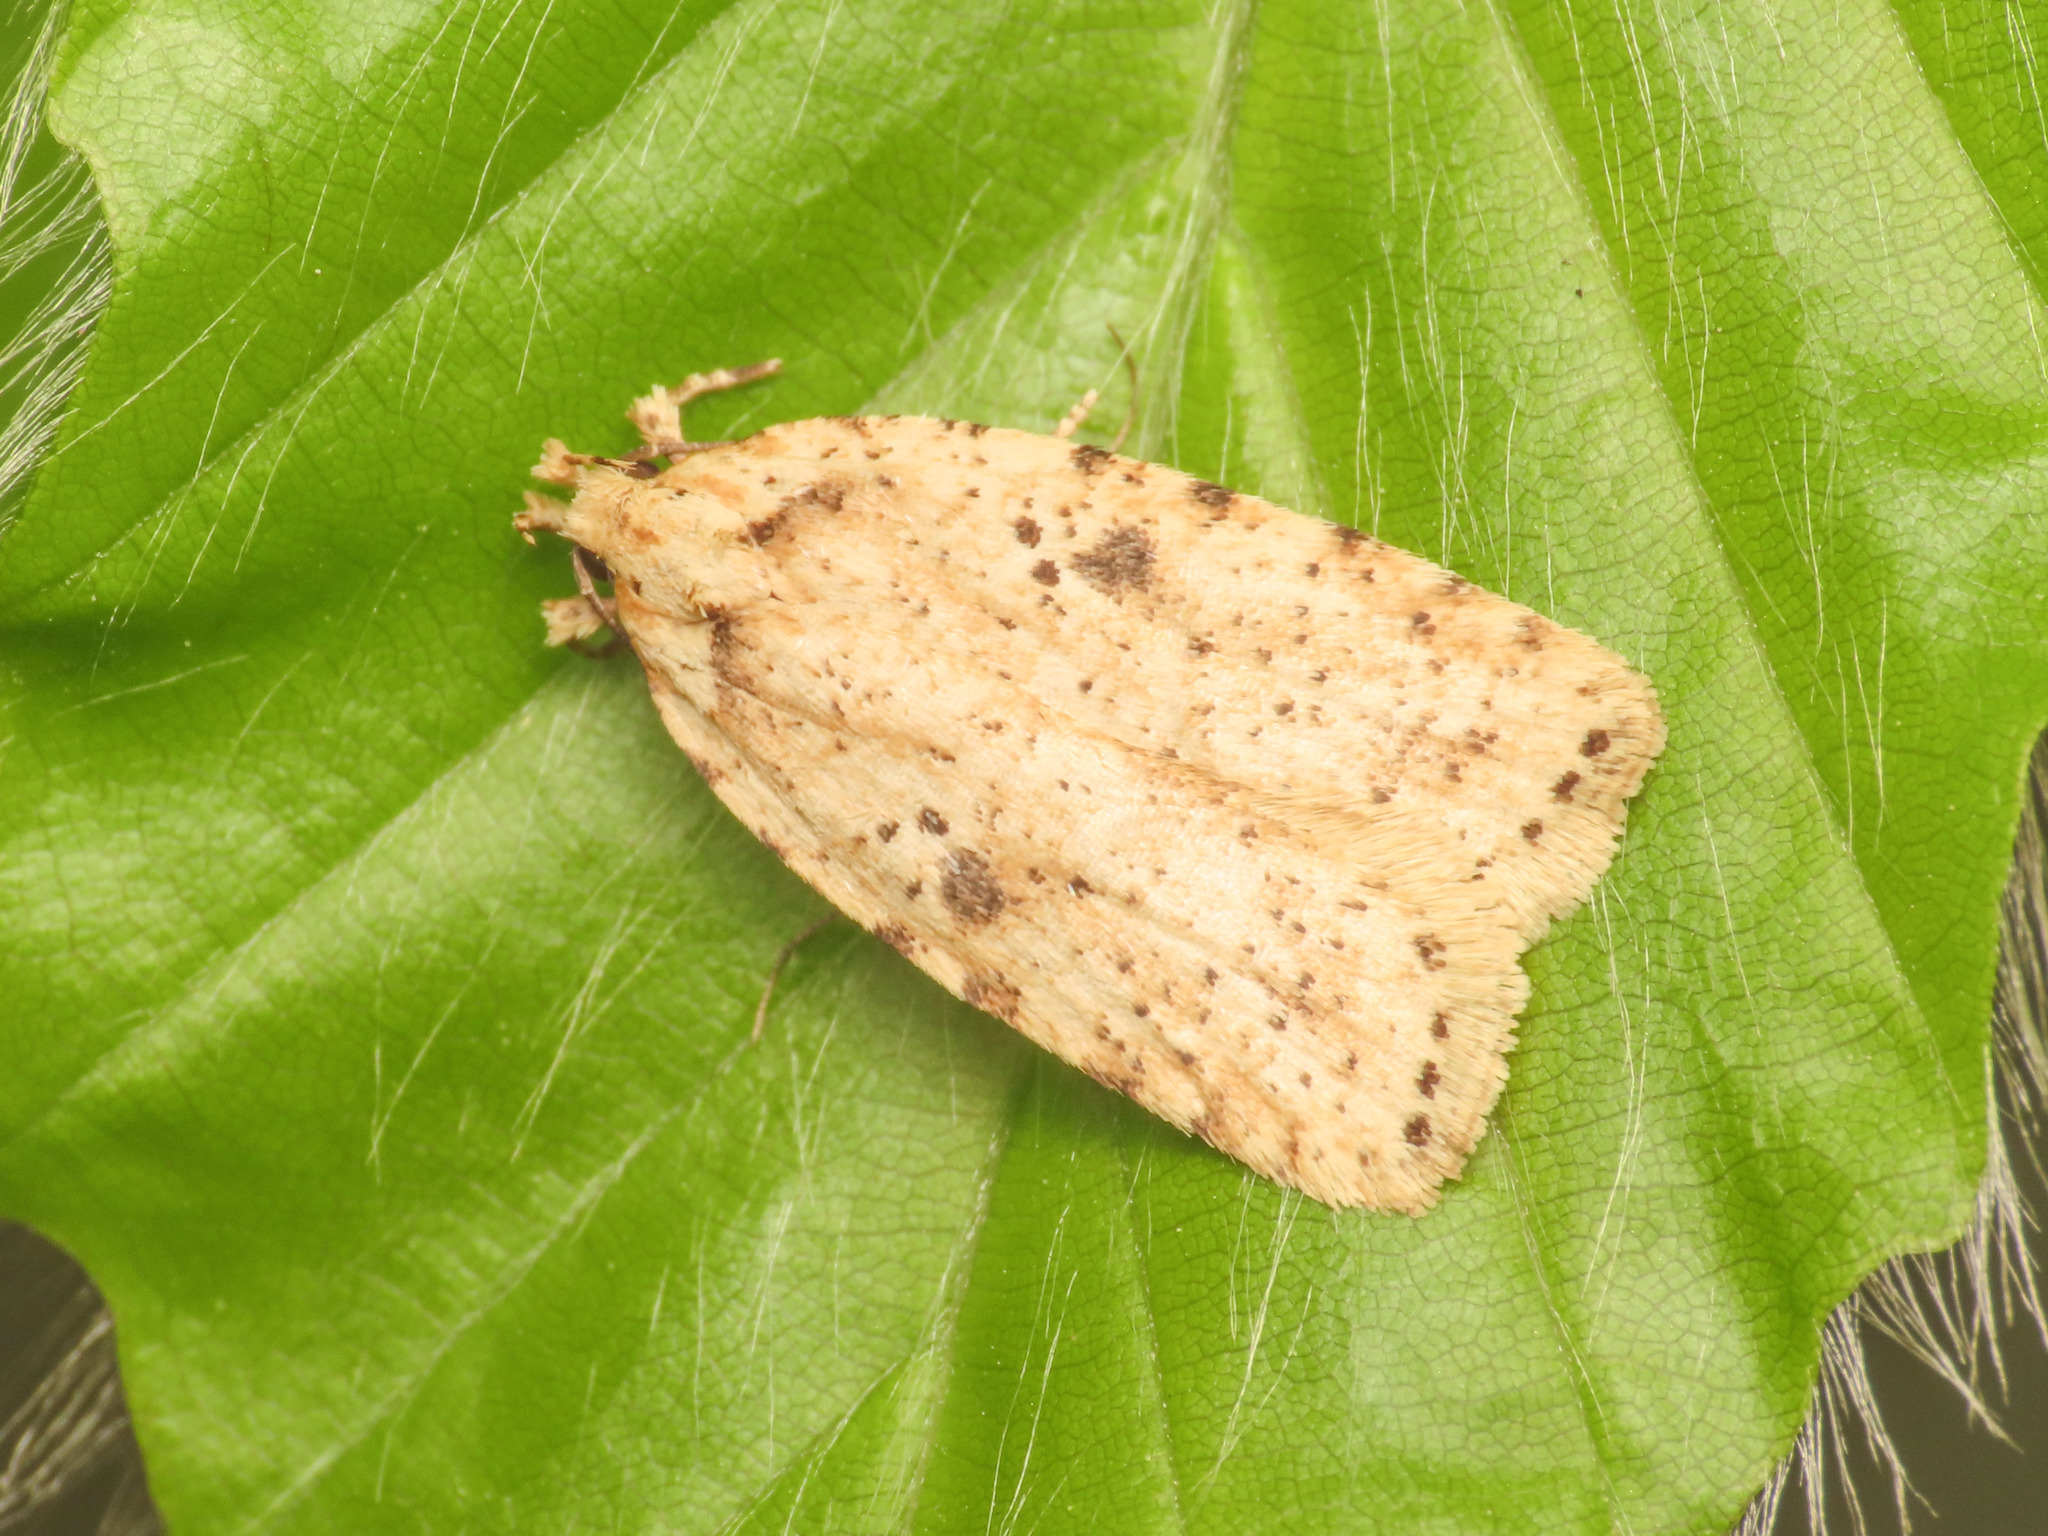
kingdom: Animalia
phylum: Arthropoda
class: Insecta
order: Lepidoptera
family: Depressariidae
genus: Agonopterix
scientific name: Agonopterix arenella
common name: Brindled flat-body
